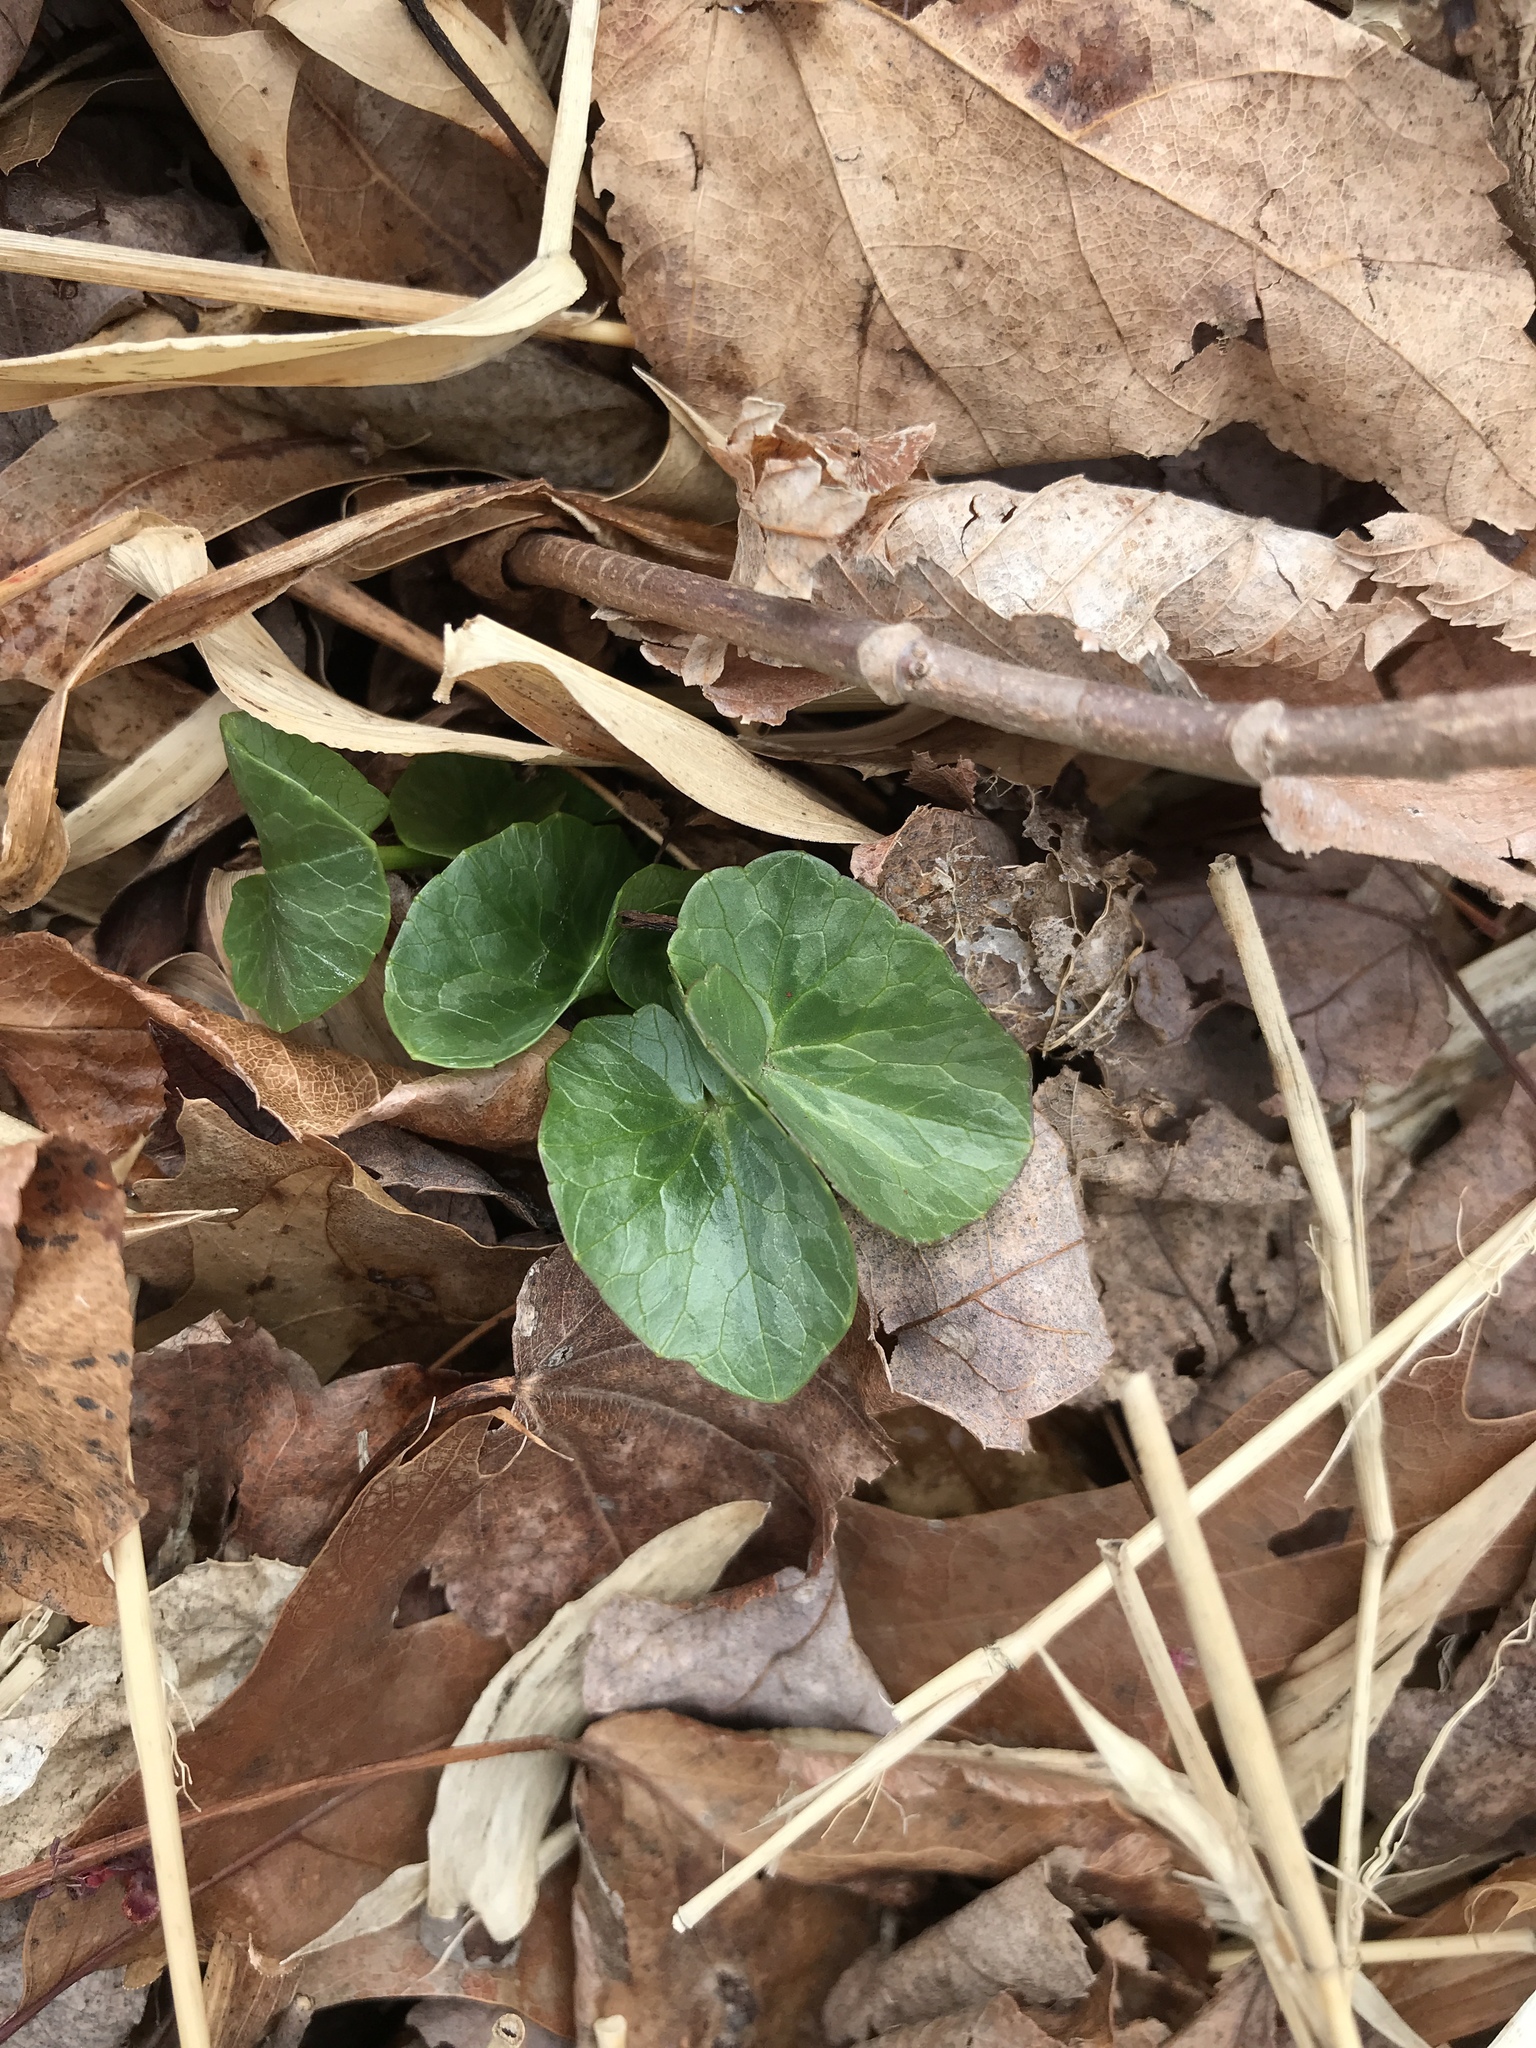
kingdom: Plantae
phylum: Tracheophyta
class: Magnoliopsida
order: Ranunculales
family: Ranunculaceae
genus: Ficaria
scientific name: Ficaria verna
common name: Lesser celandine
